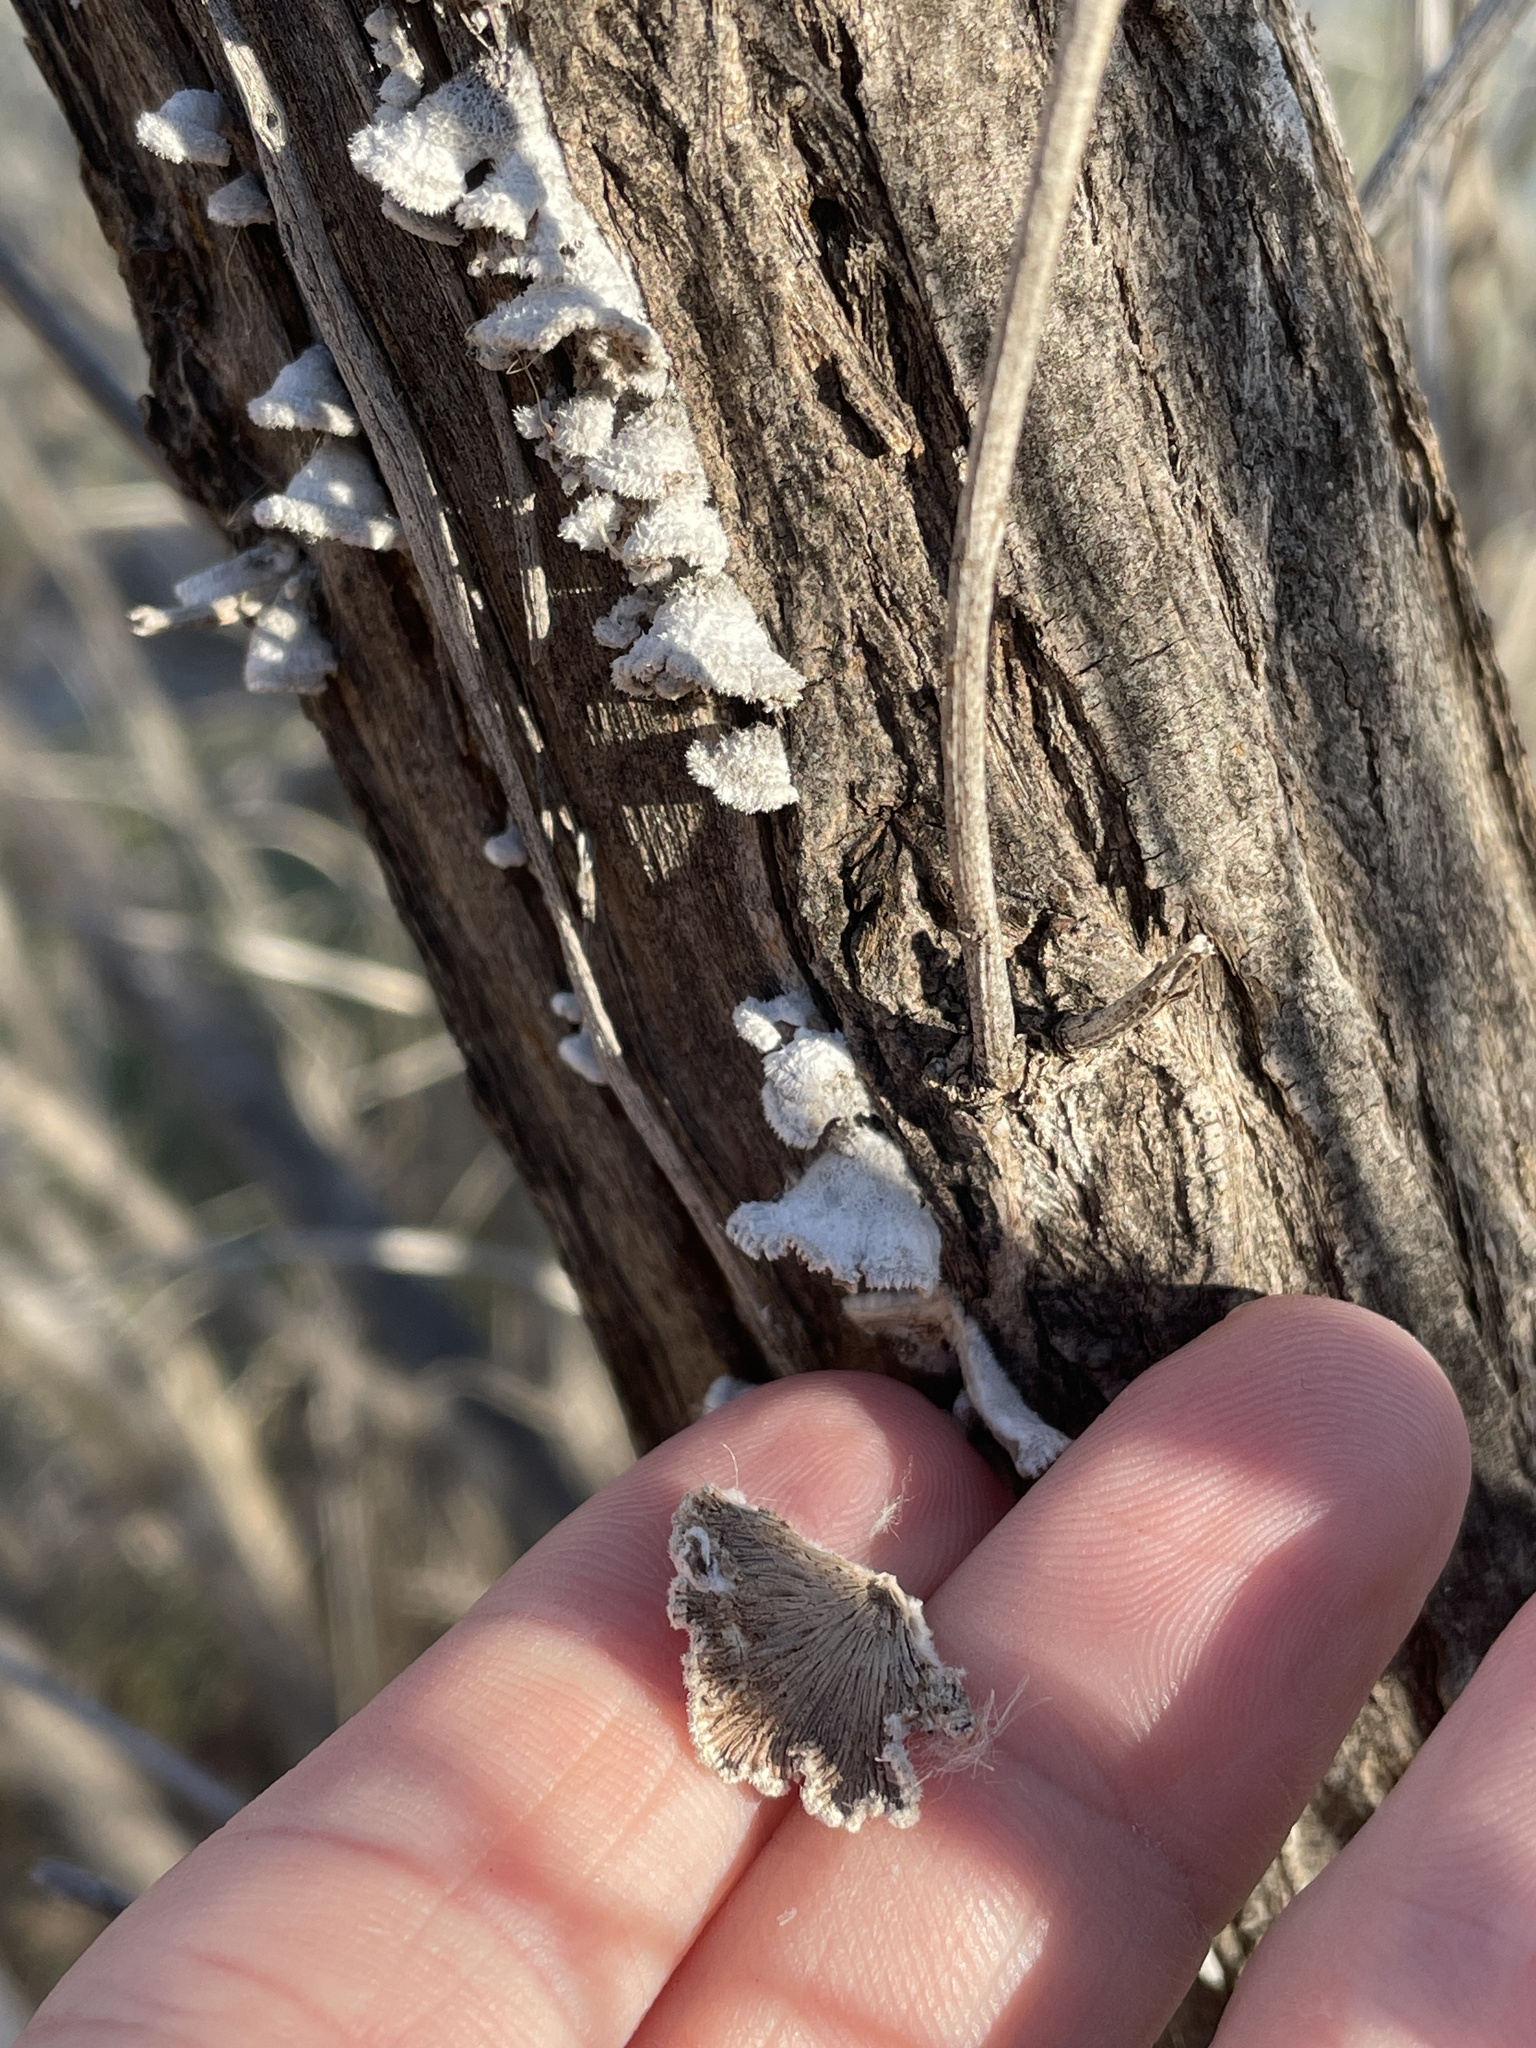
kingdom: Fungi
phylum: Basidiomycota
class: Agaricomycetes
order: Agaricales
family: Schizophyllaceae
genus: Schizophyllum
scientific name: Schizophyllum commune
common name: Common porecrust
